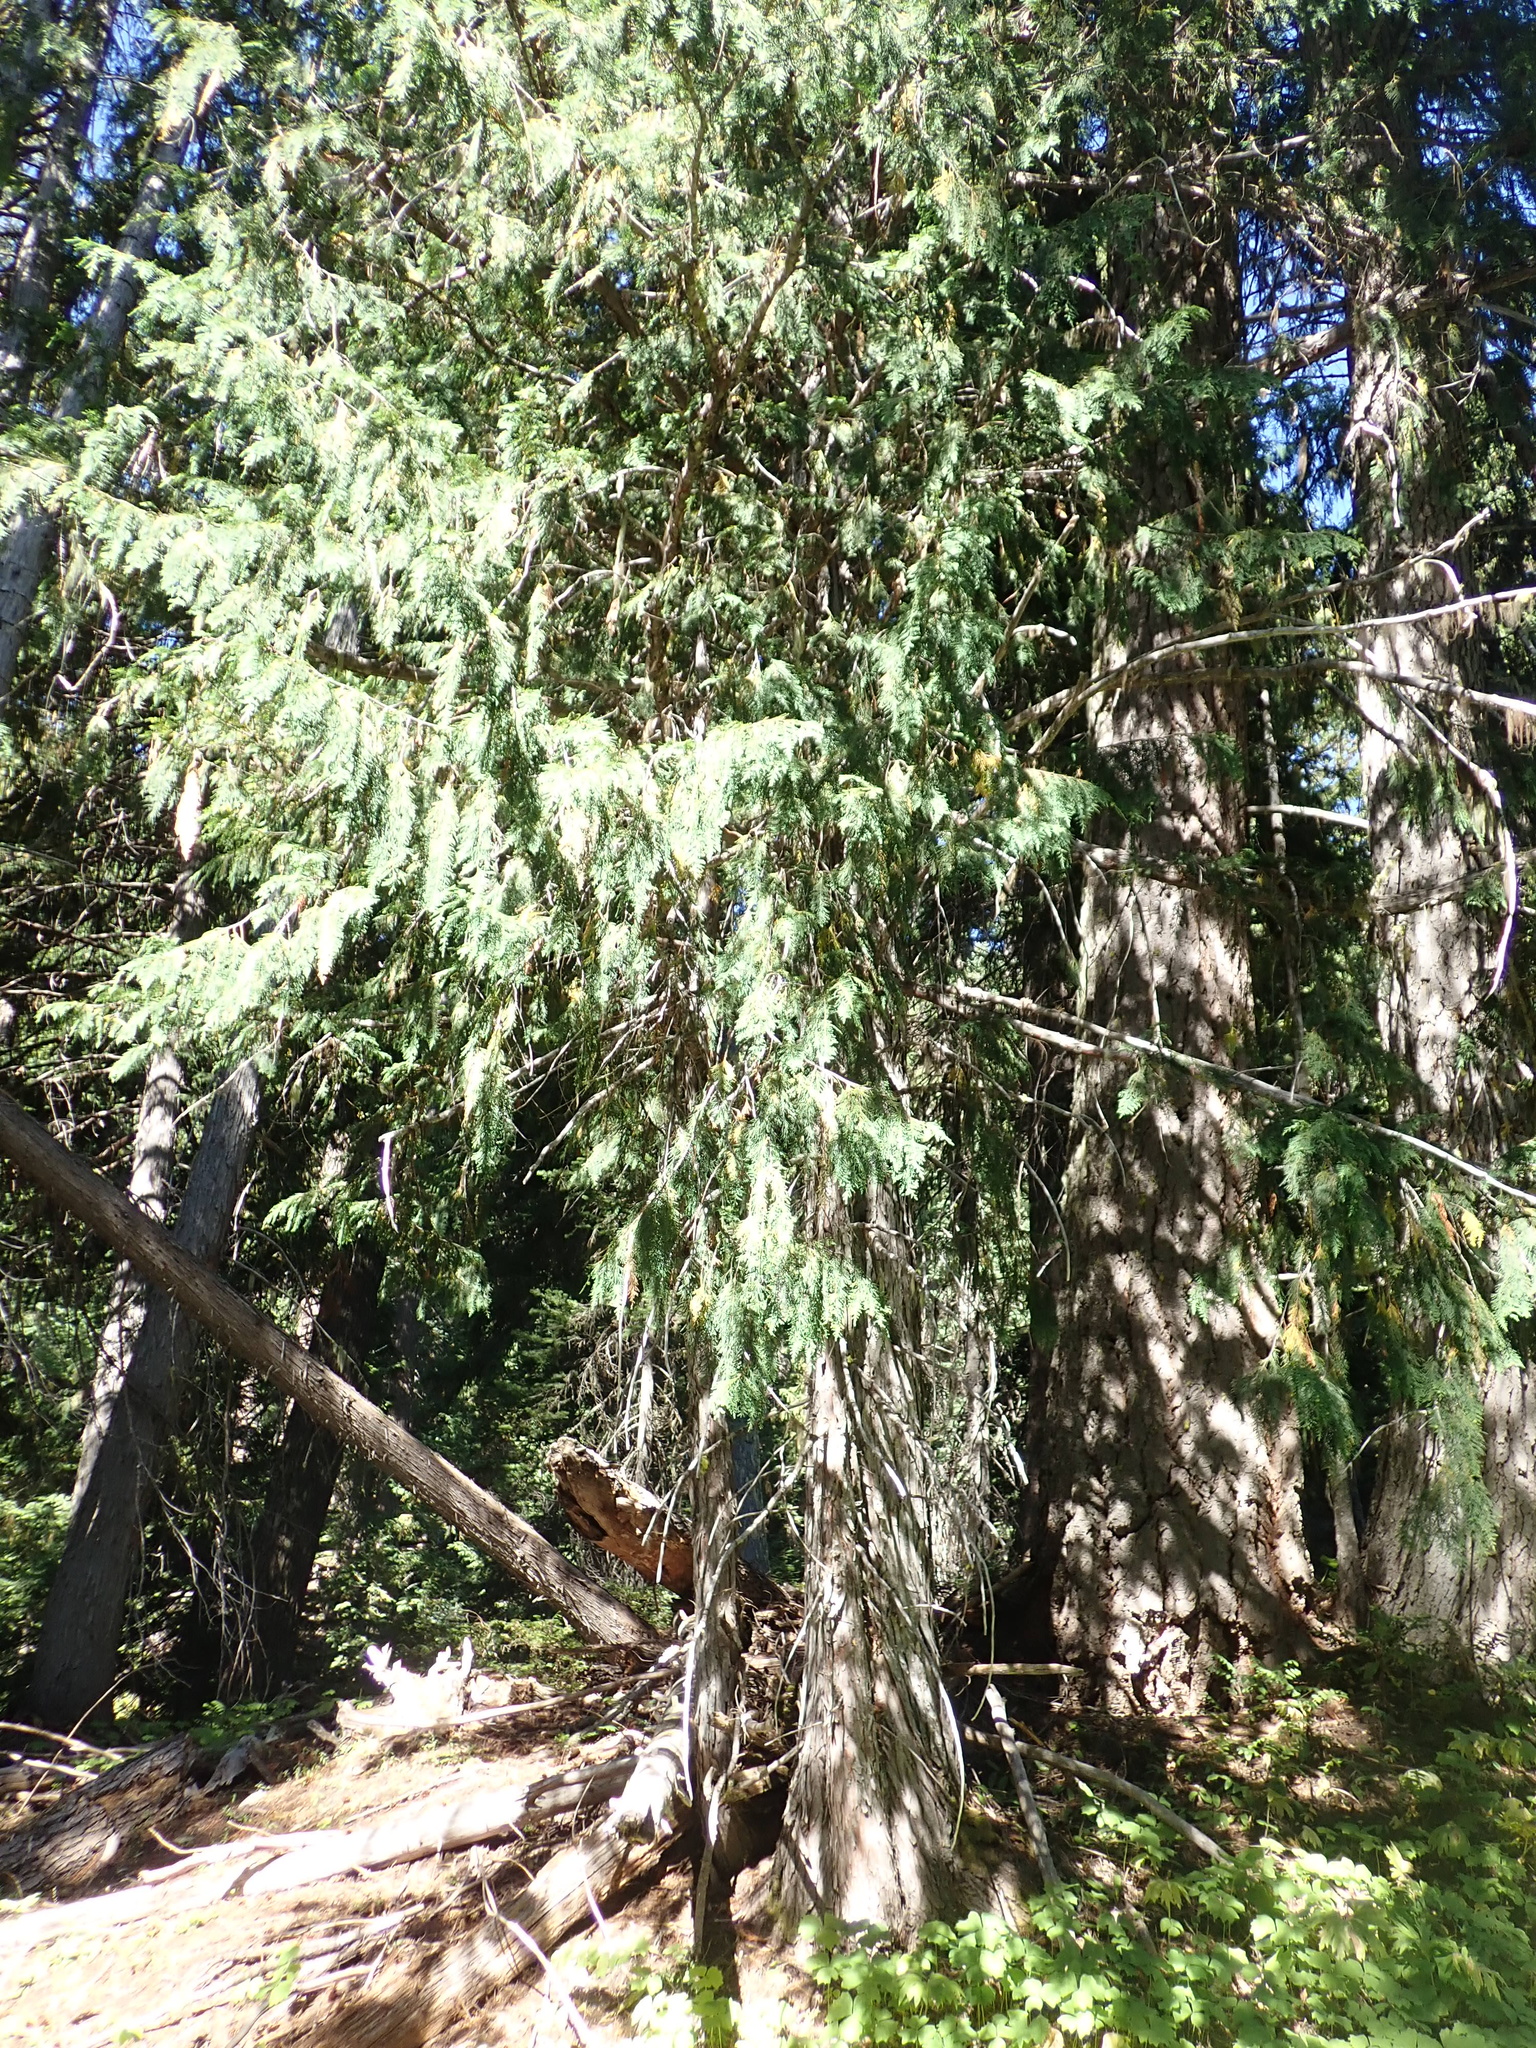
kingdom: Plantae
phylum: Tracheophyta
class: Pinopsida
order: Pinales
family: Cupressaceae
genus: Xanthocyparis
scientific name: Xanthocyparis nootkatensis
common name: Nootka cypress
